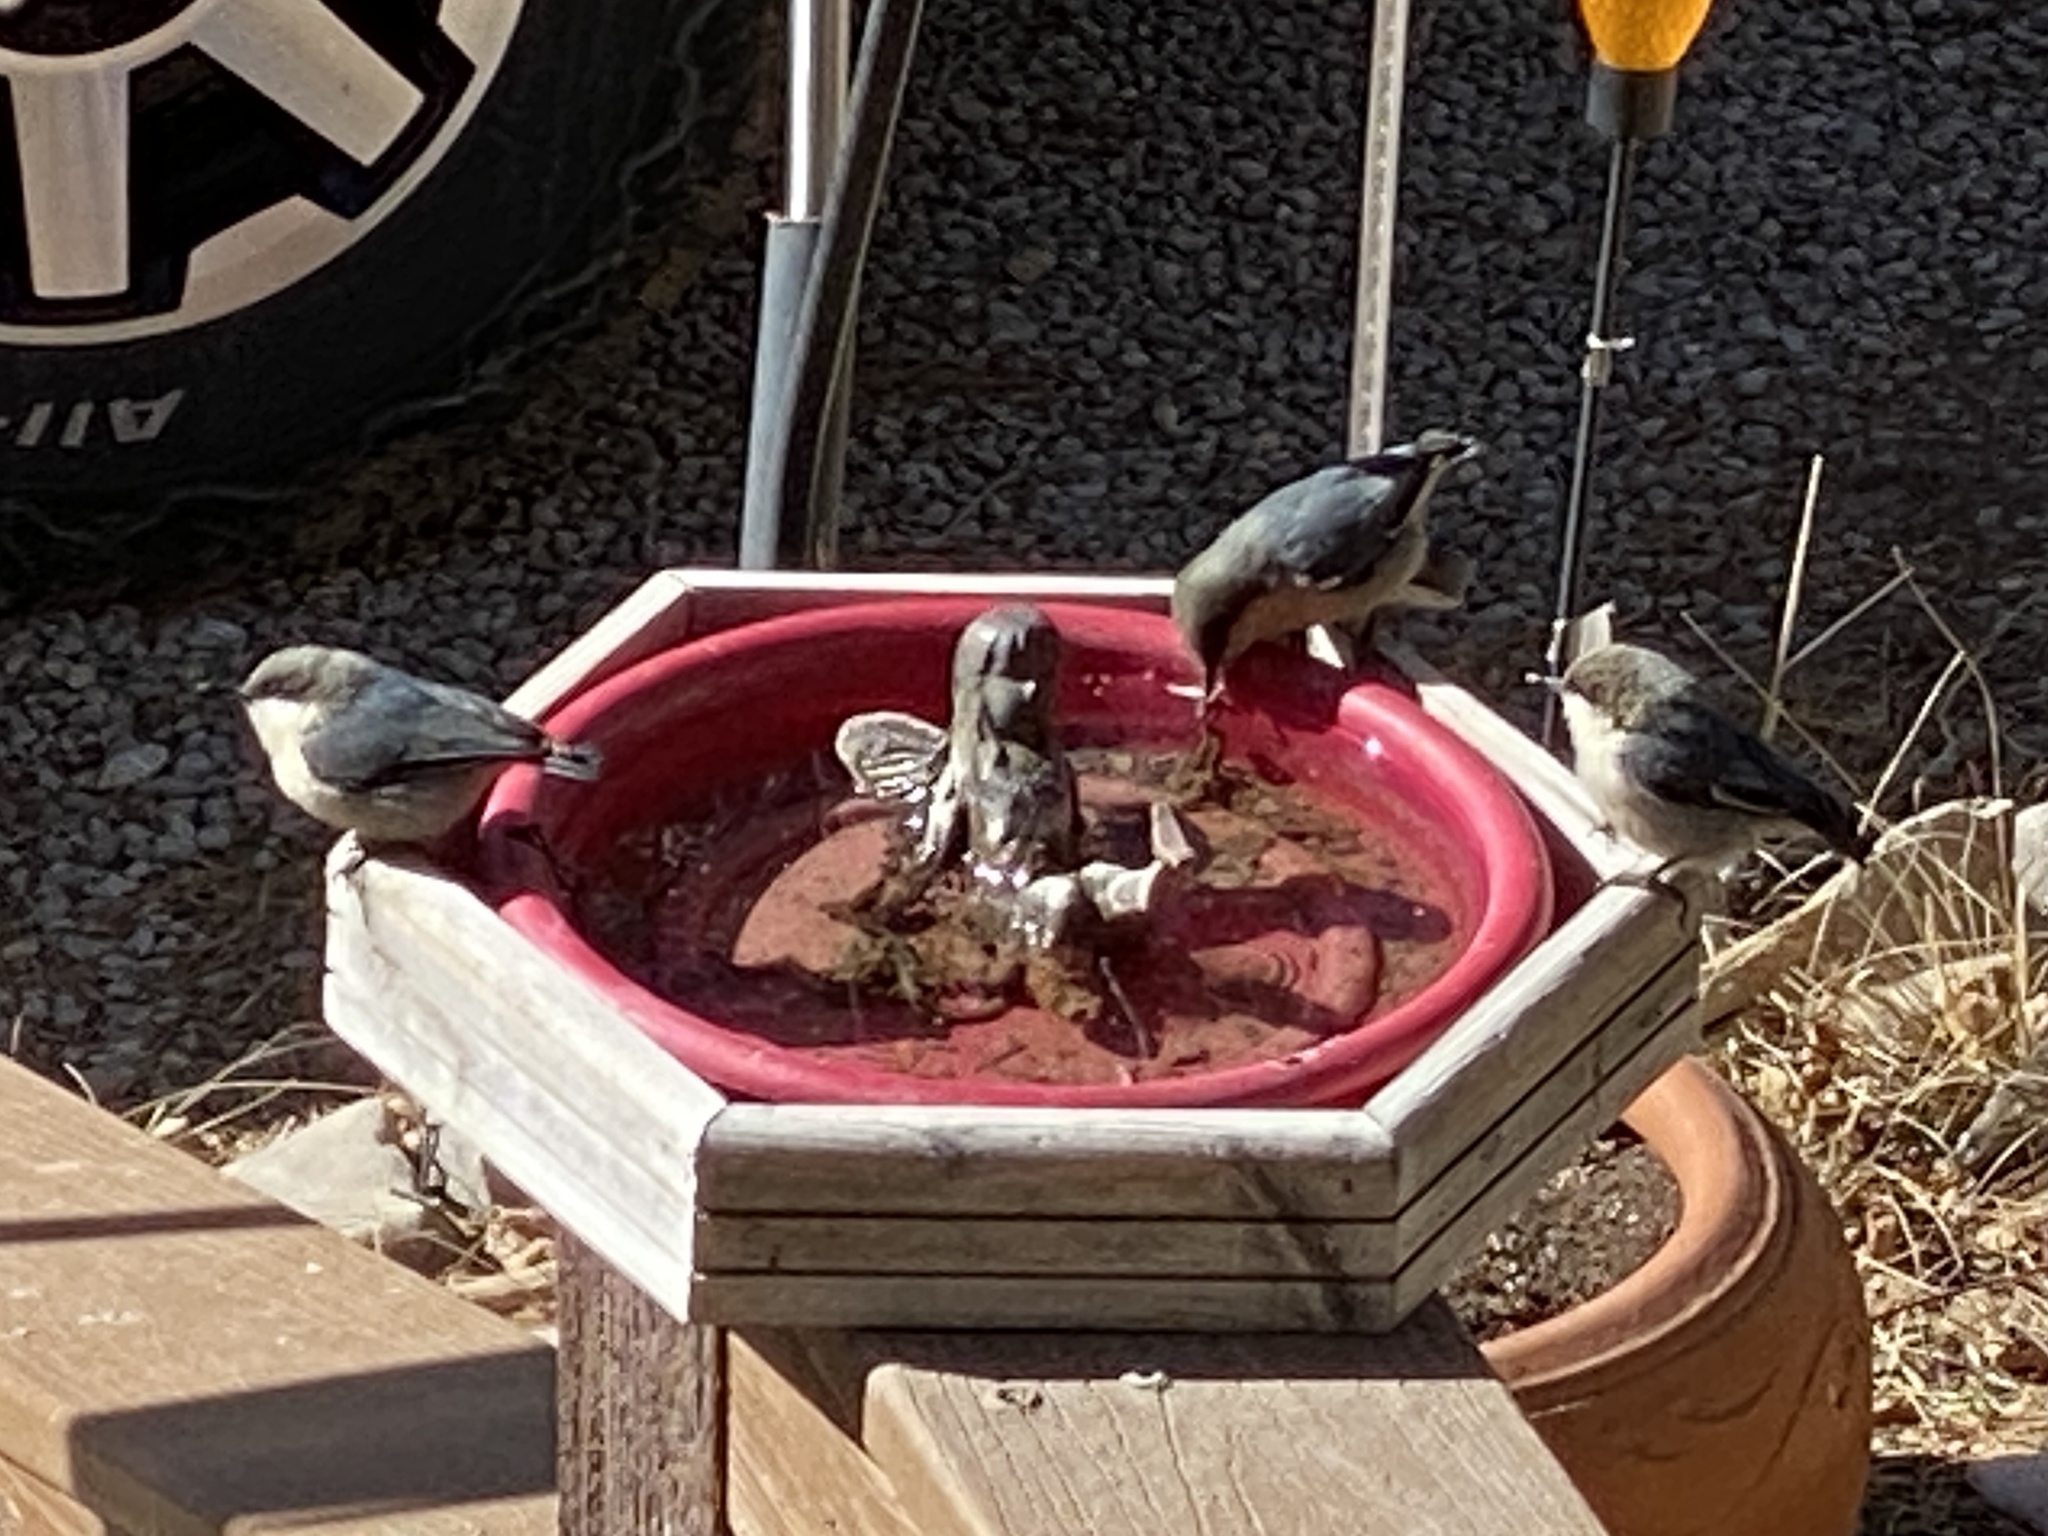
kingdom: Animalia
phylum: Chordata
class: Aves
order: Passeriformes
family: Sittidae
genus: Sitta
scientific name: Sitta pygmaea
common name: Pygmy nuthatch
